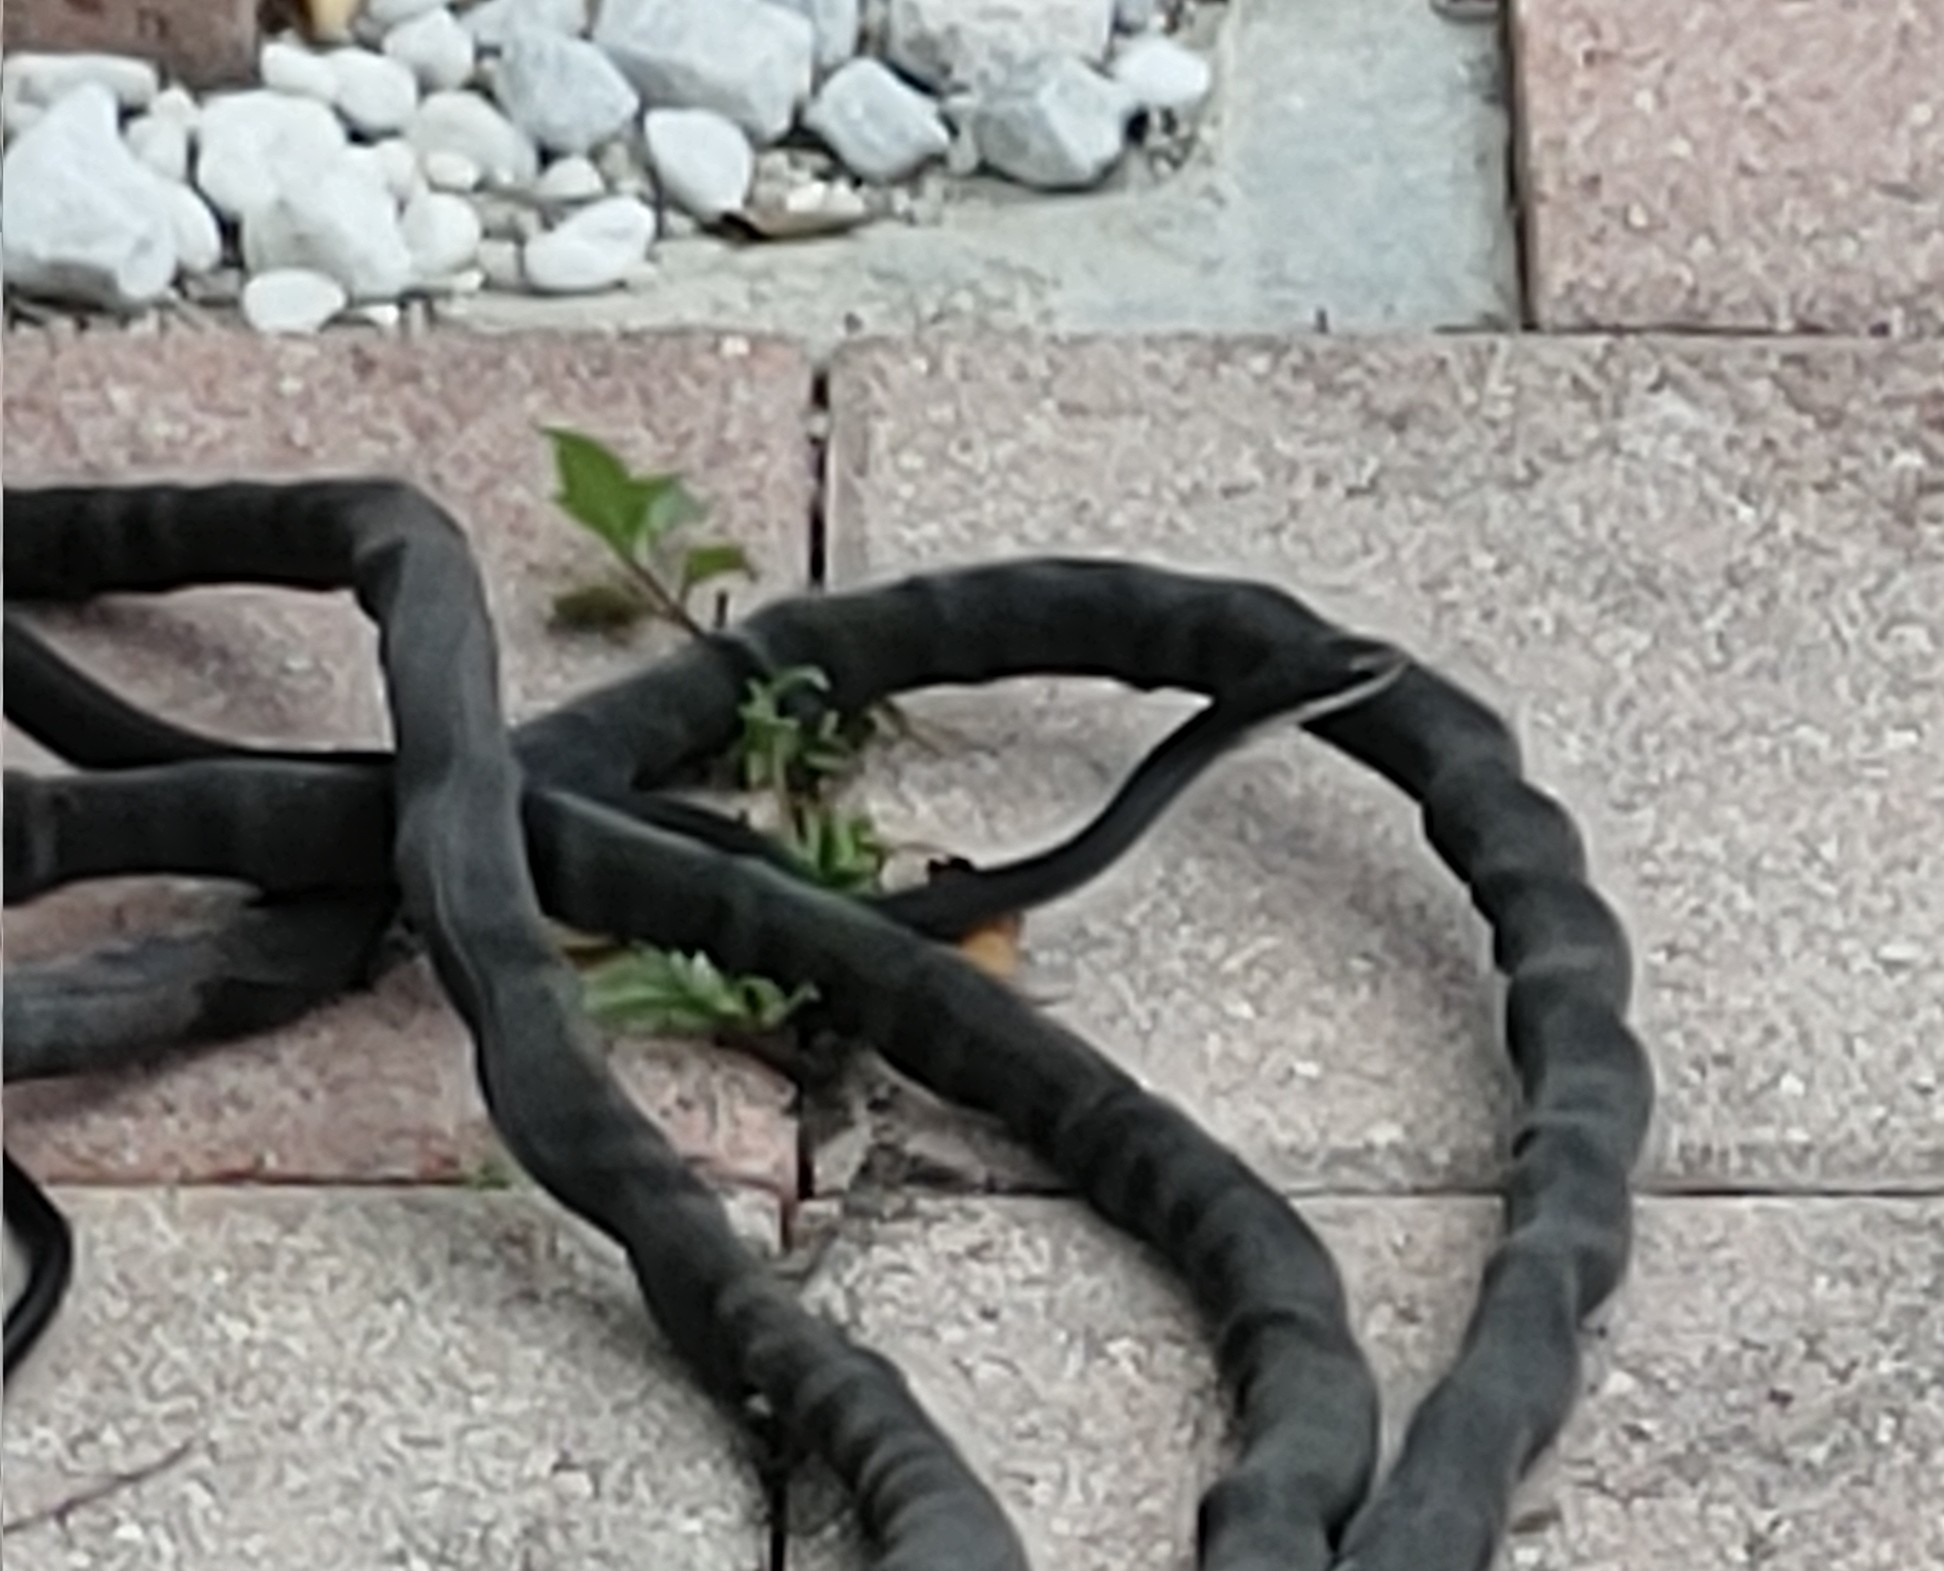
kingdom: Animalia
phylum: Chordata
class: Squamata
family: Colubridae
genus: Coluber
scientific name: Coluber constrictor
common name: Eastern racer
